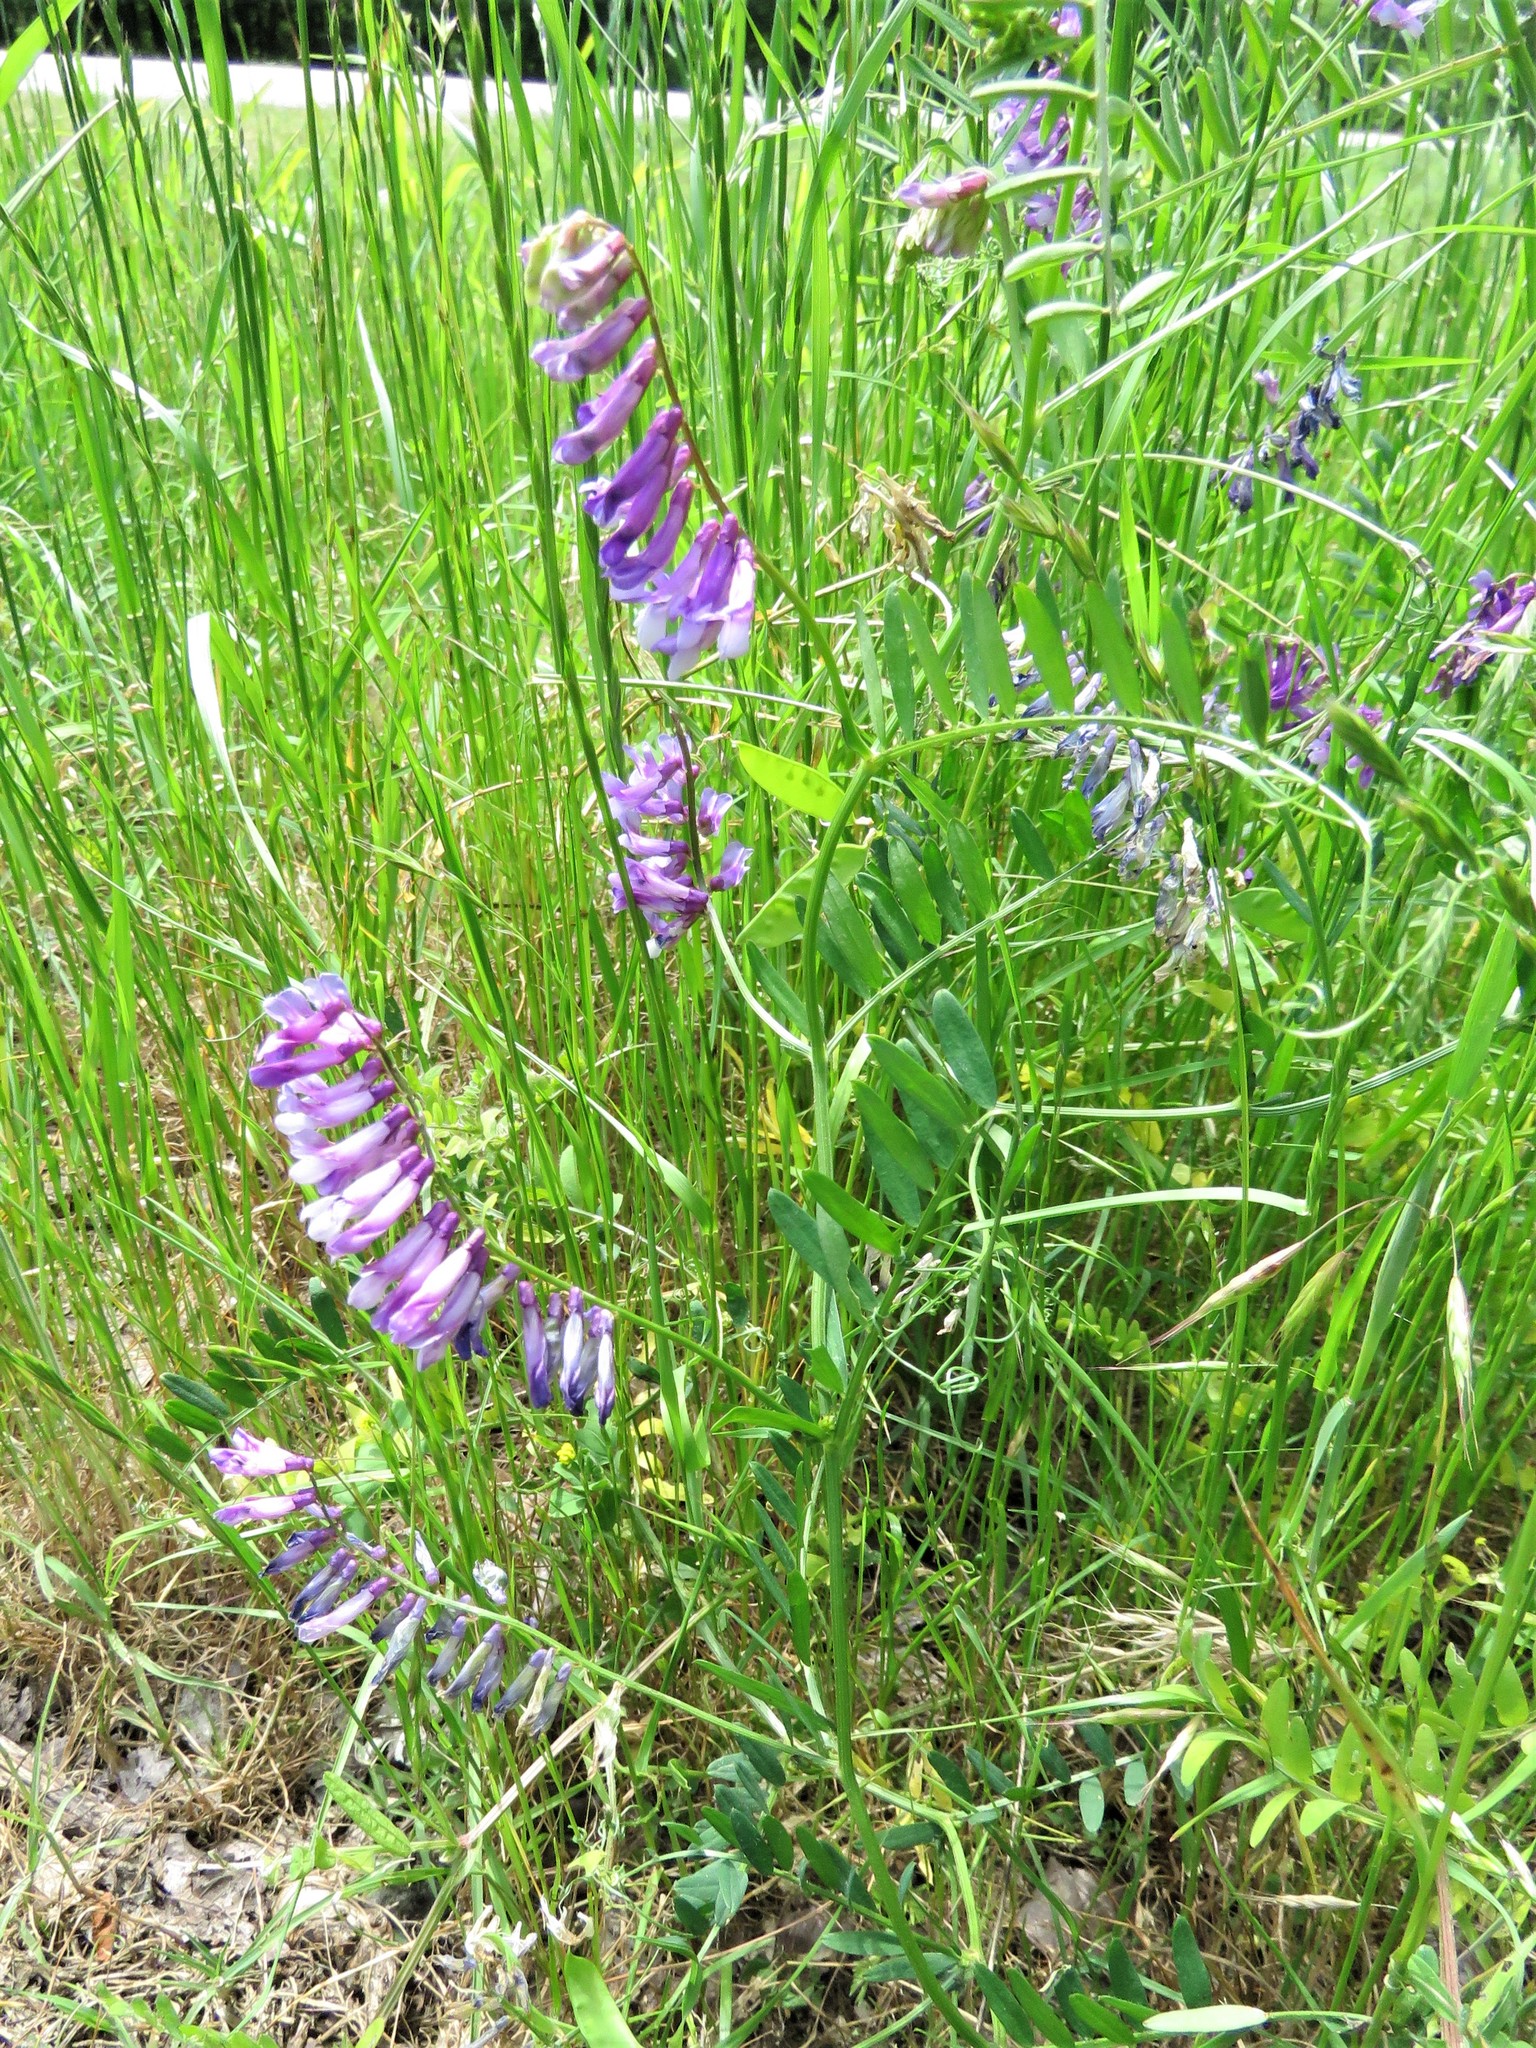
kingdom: Plantae
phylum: Tracheophyta
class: Magnoliopsida
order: Fabales
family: Fabaceae
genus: Vicia
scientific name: Vicia villosa
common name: Fodder vetch
